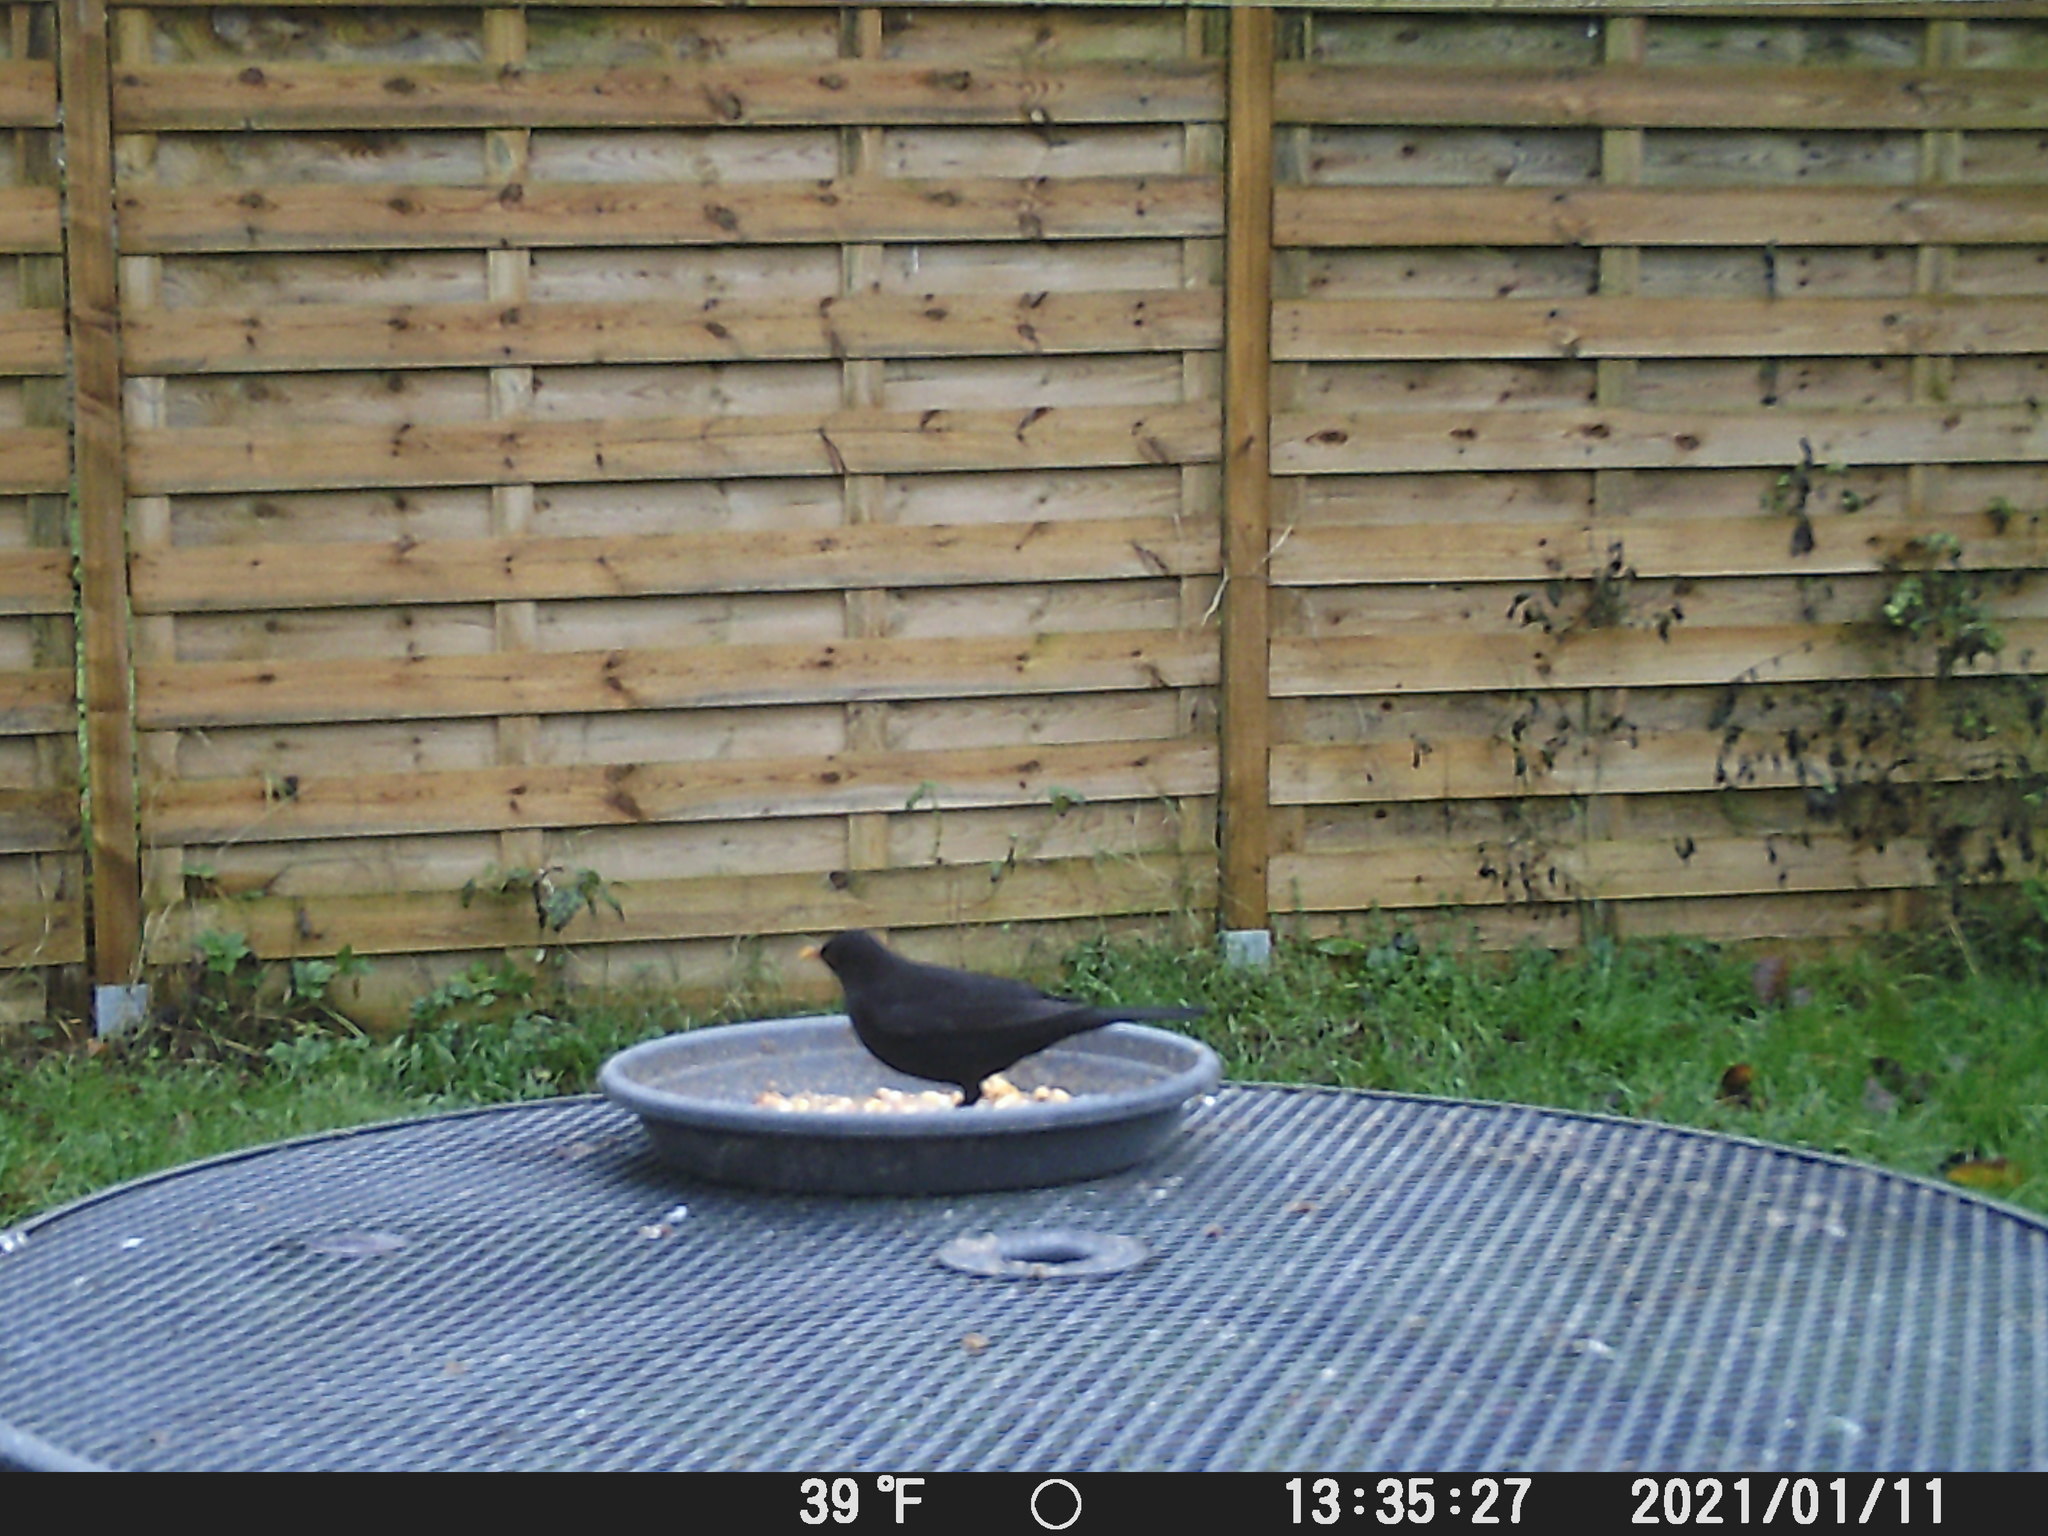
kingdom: Animalia
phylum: Chordata
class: Aves
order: Passeriformes
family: Turdidae
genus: Turdus
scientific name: Turdus merula
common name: Common blackbird
